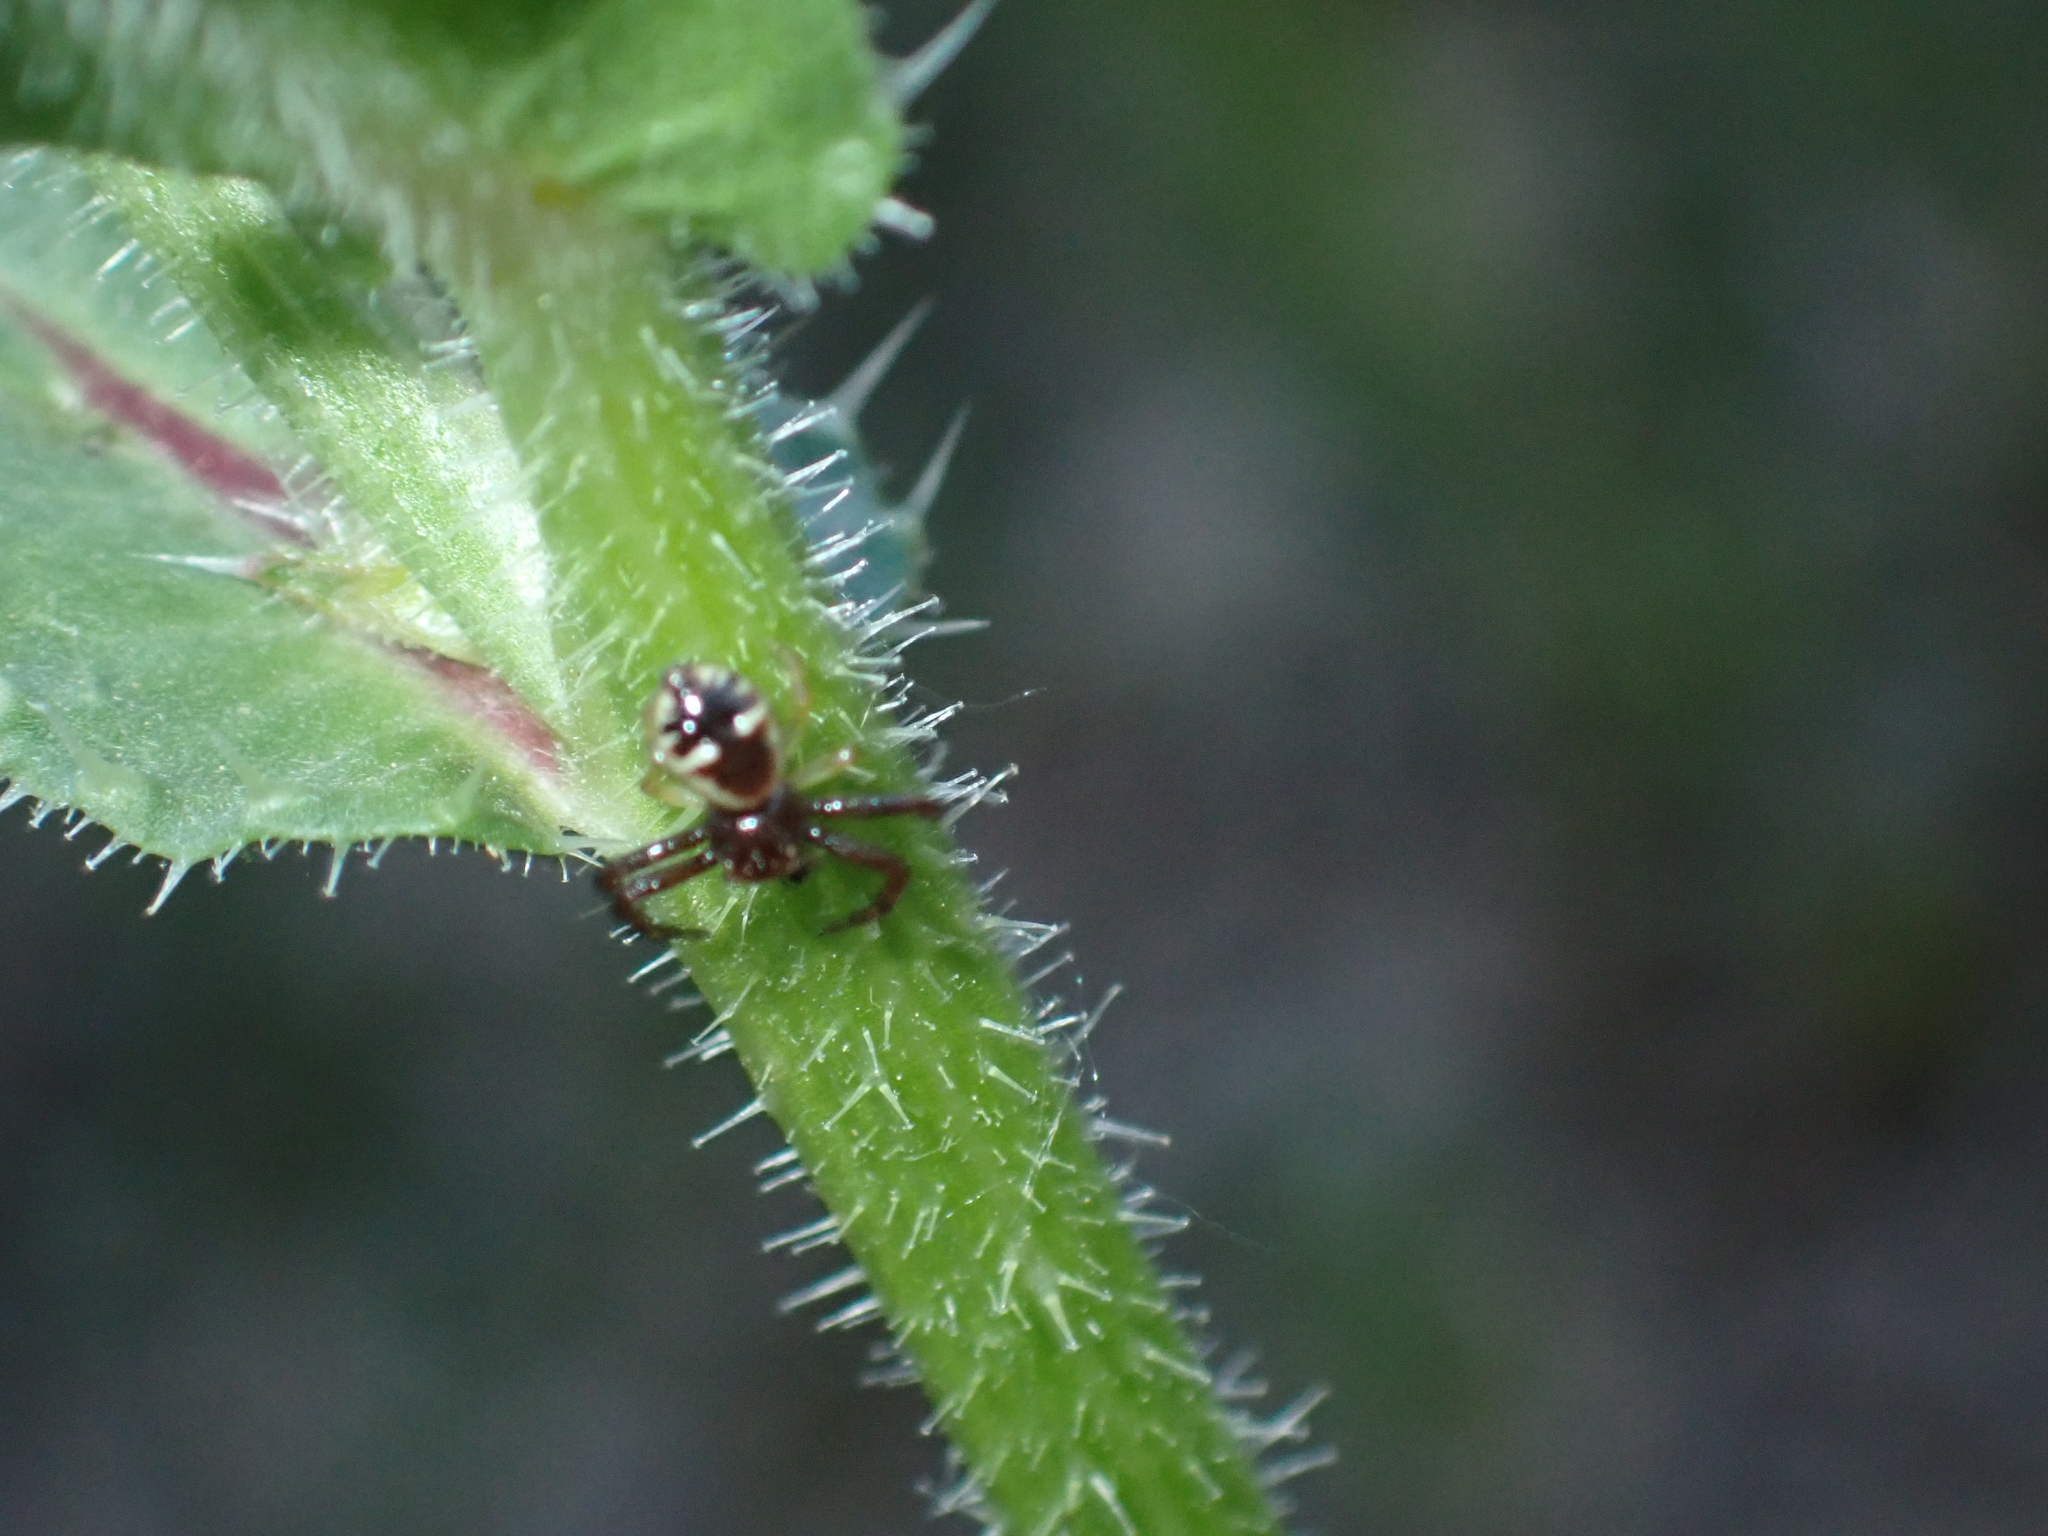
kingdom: Animalia
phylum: Arthropoda
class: Arachnida
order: Araneae
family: Thomisidae
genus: Synema
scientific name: Synema globosum
